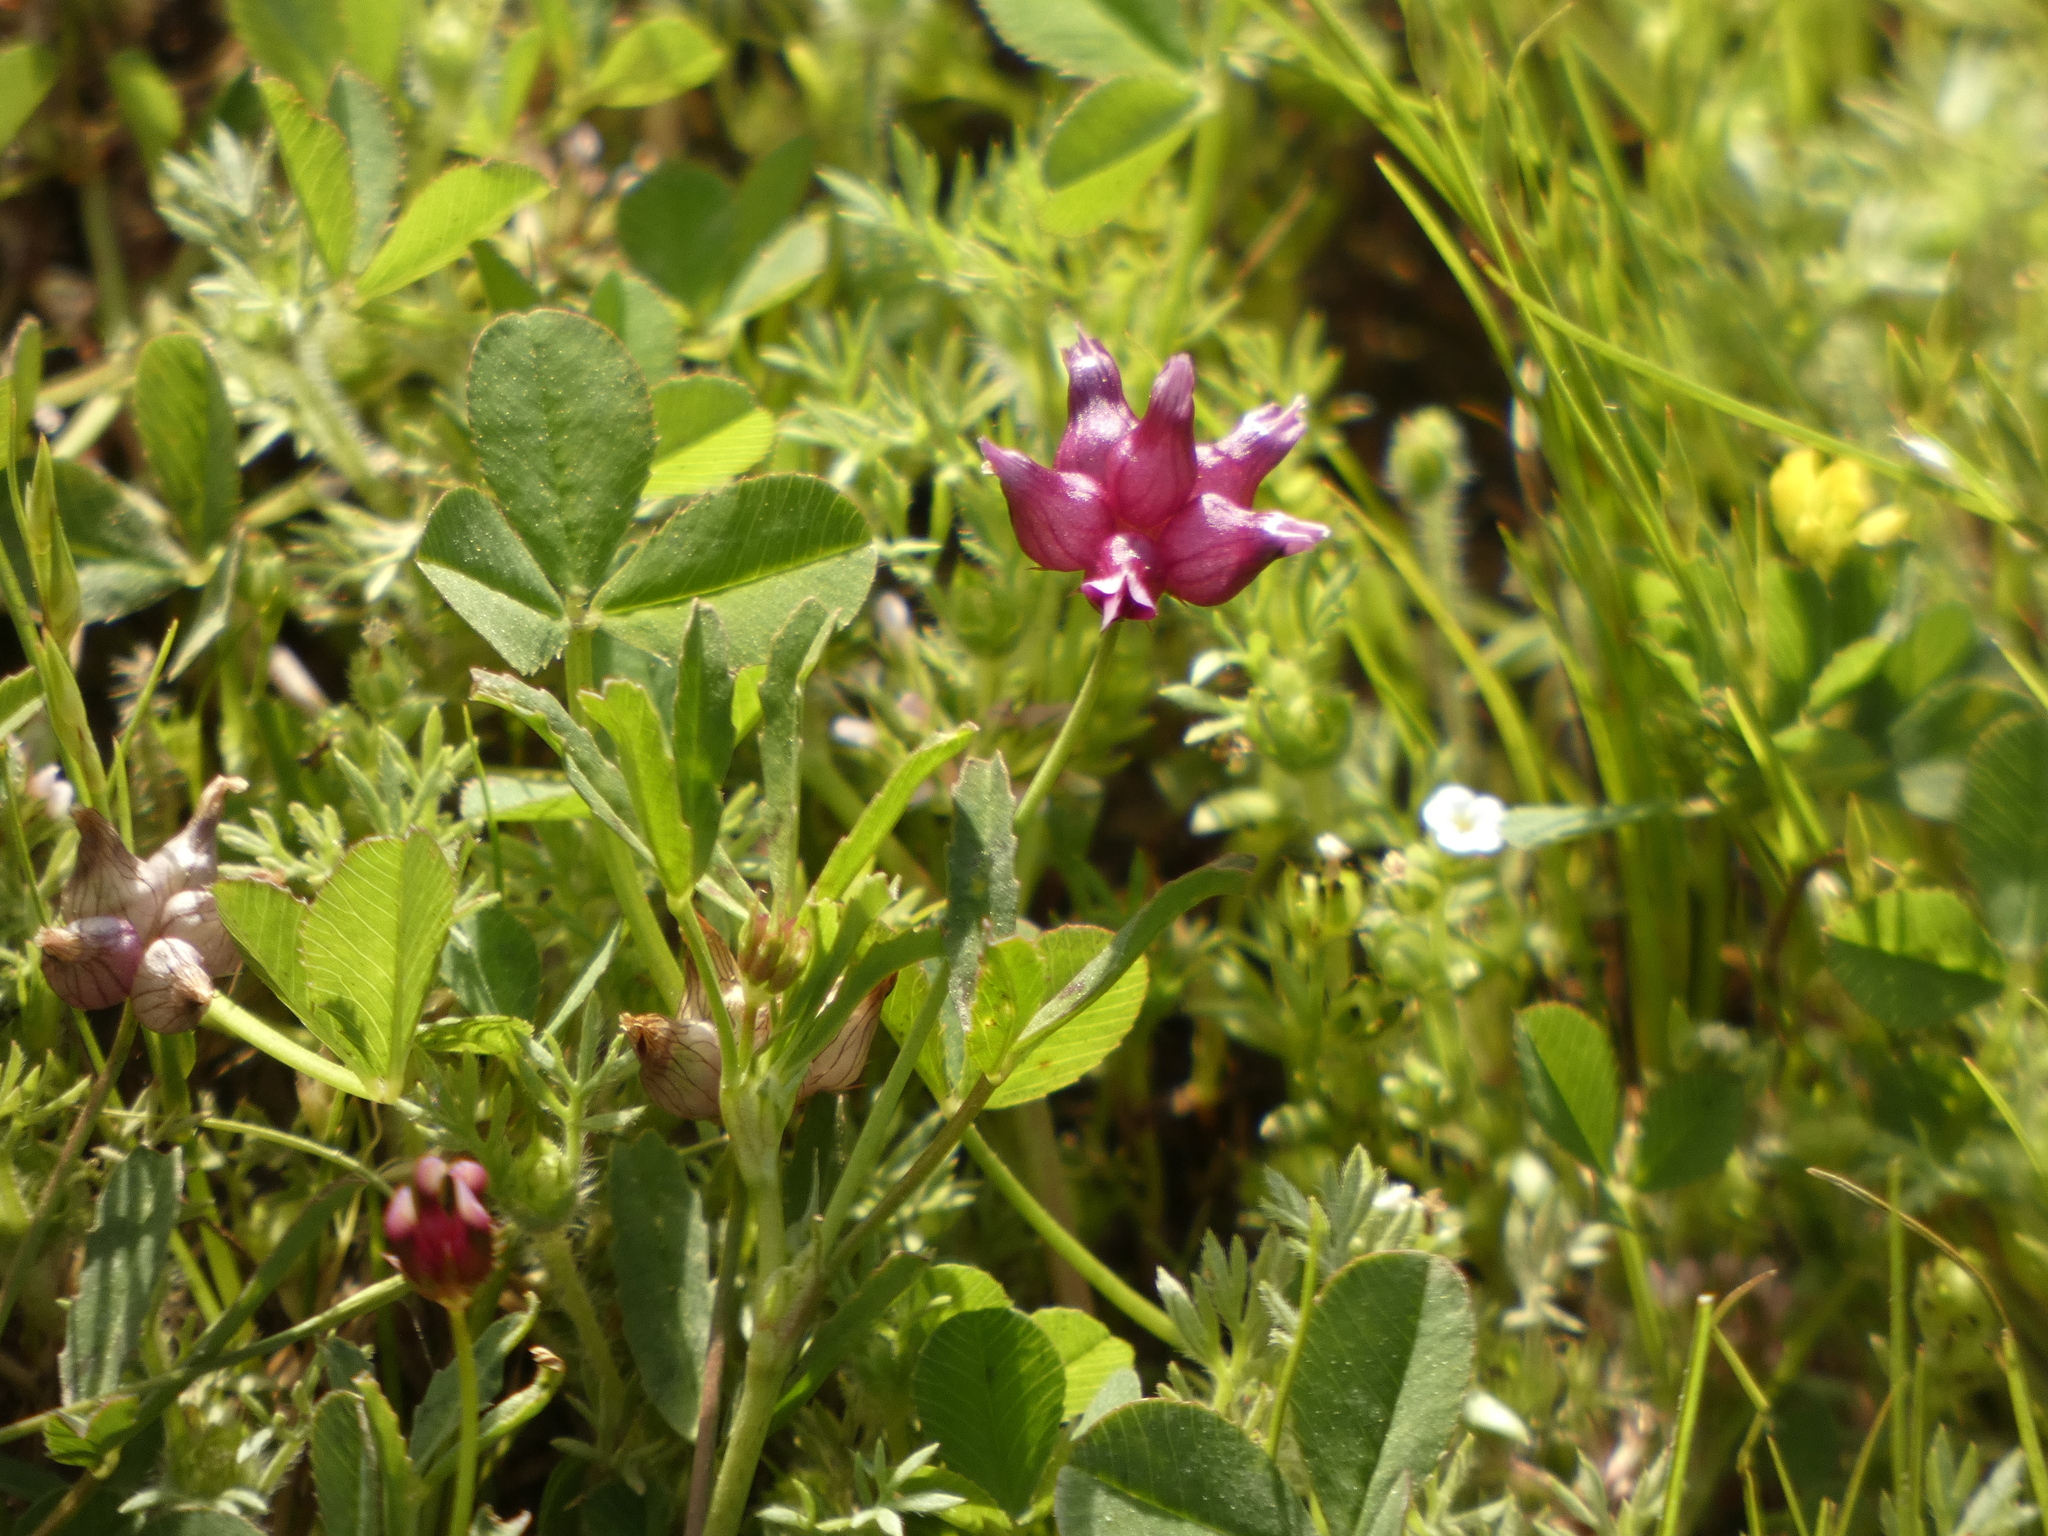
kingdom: Plantae
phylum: Tracheophyta
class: Magnoliopsida
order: Fabales
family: Fabaceae
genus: Trifolium
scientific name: Trifolium depauperatum
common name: Poverty clover
